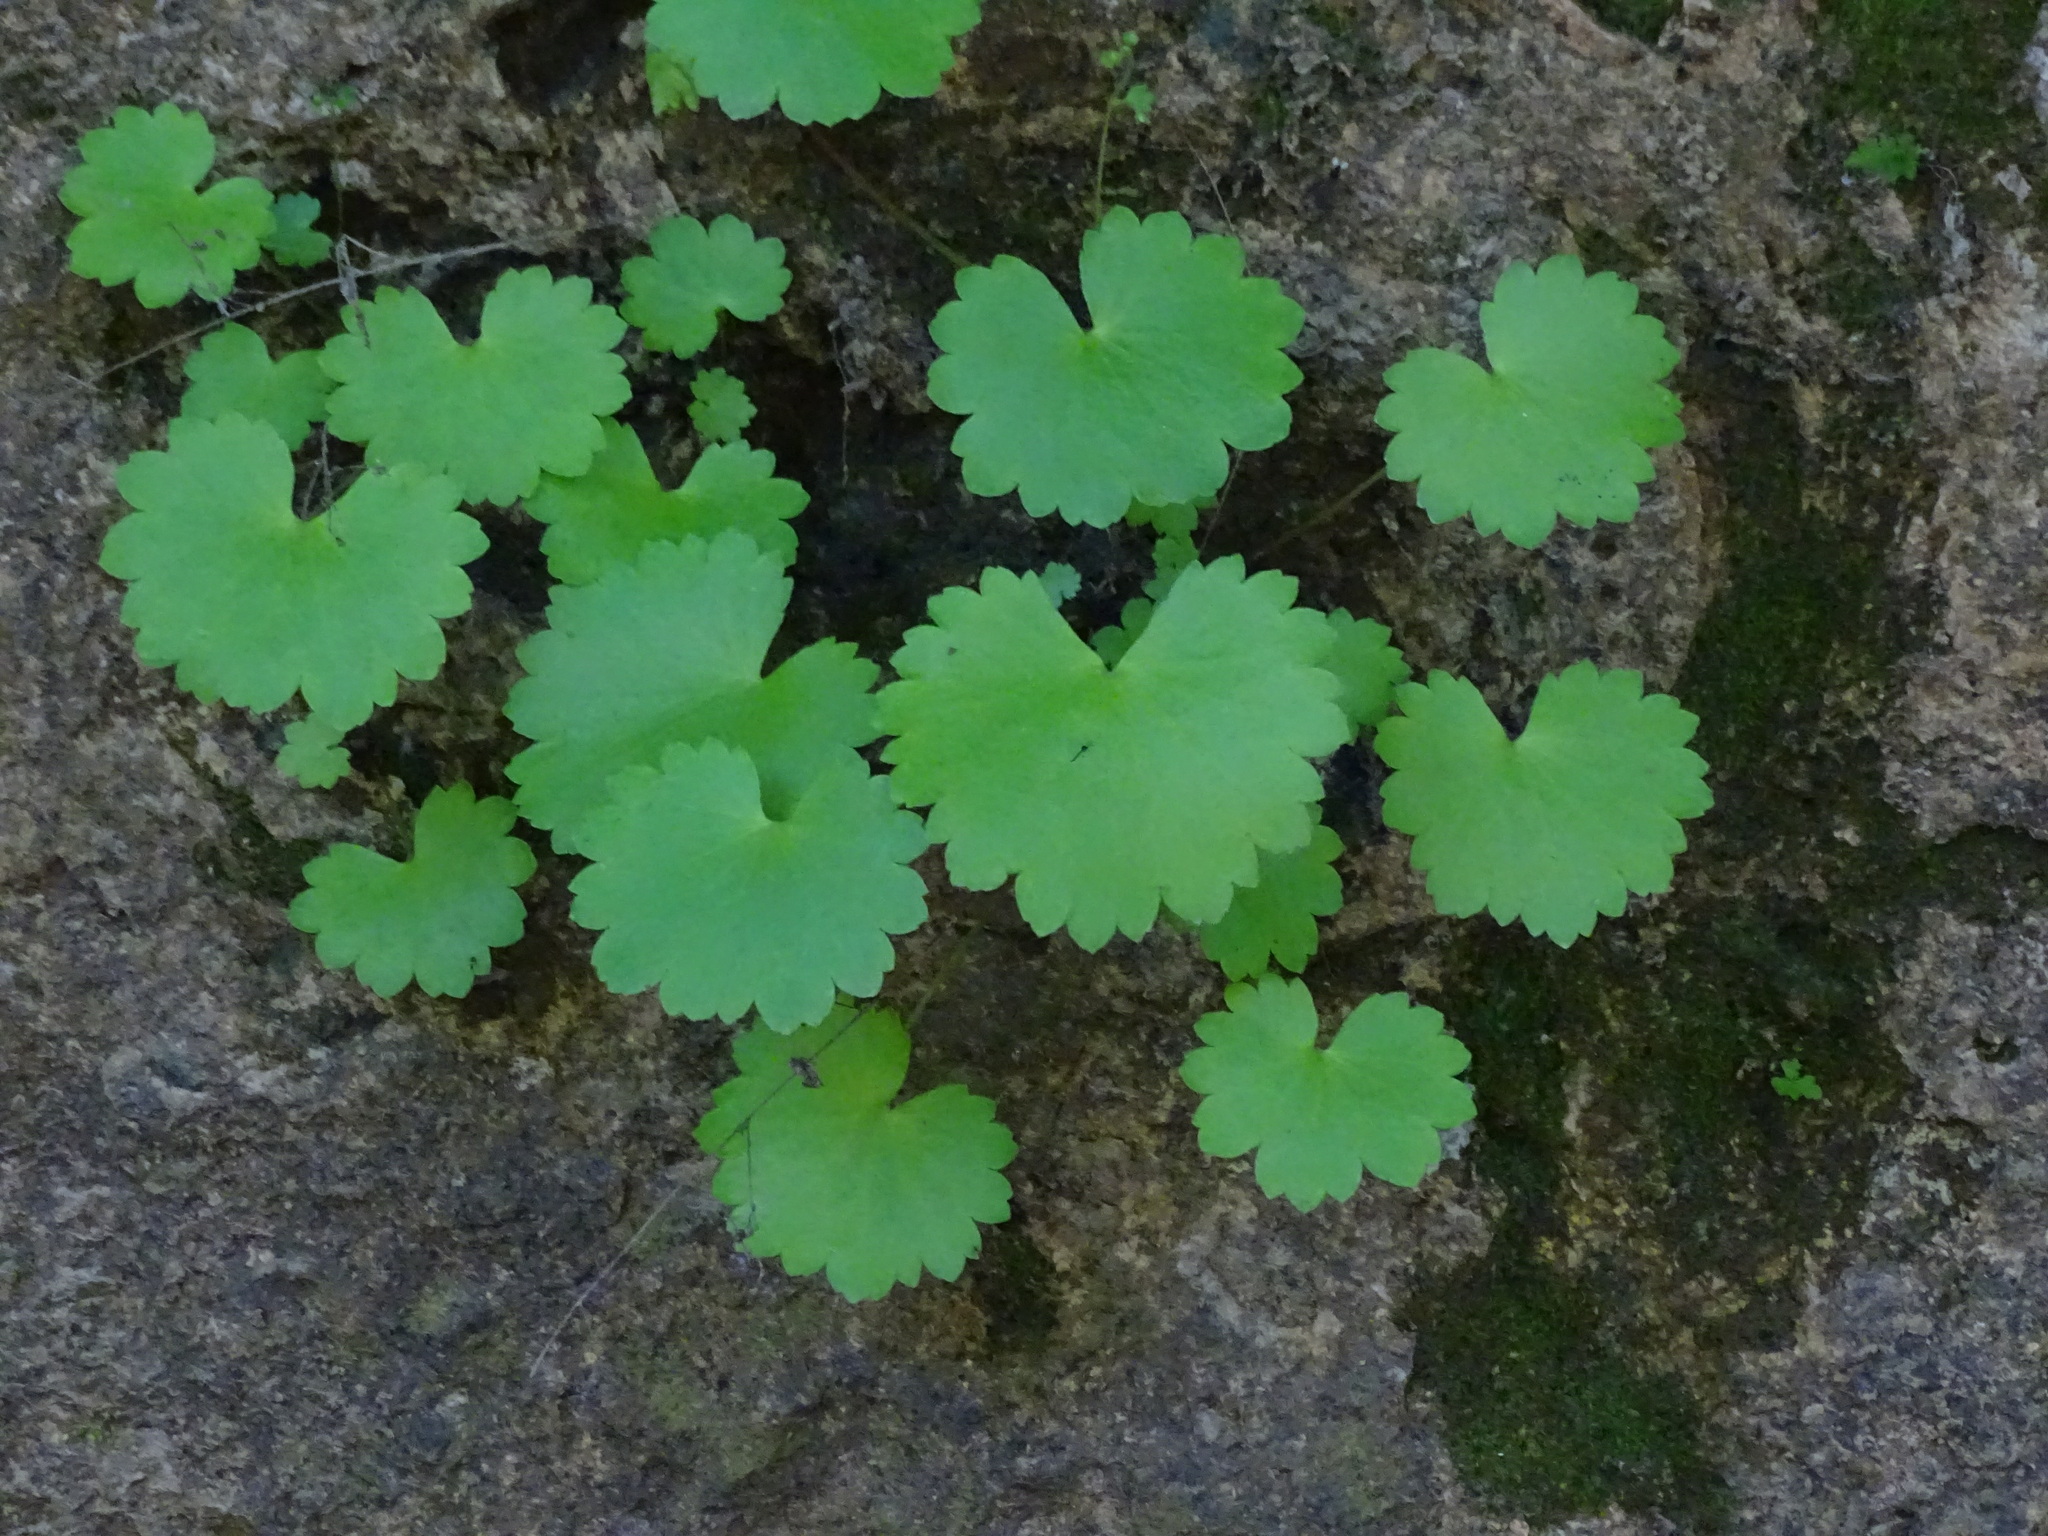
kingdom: Plantae
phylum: Tracheophyta
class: Magnoliopsida
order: Saxifragales
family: Saxifragaceae
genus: Sullivantia
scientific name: Sullivantia sullivantii
